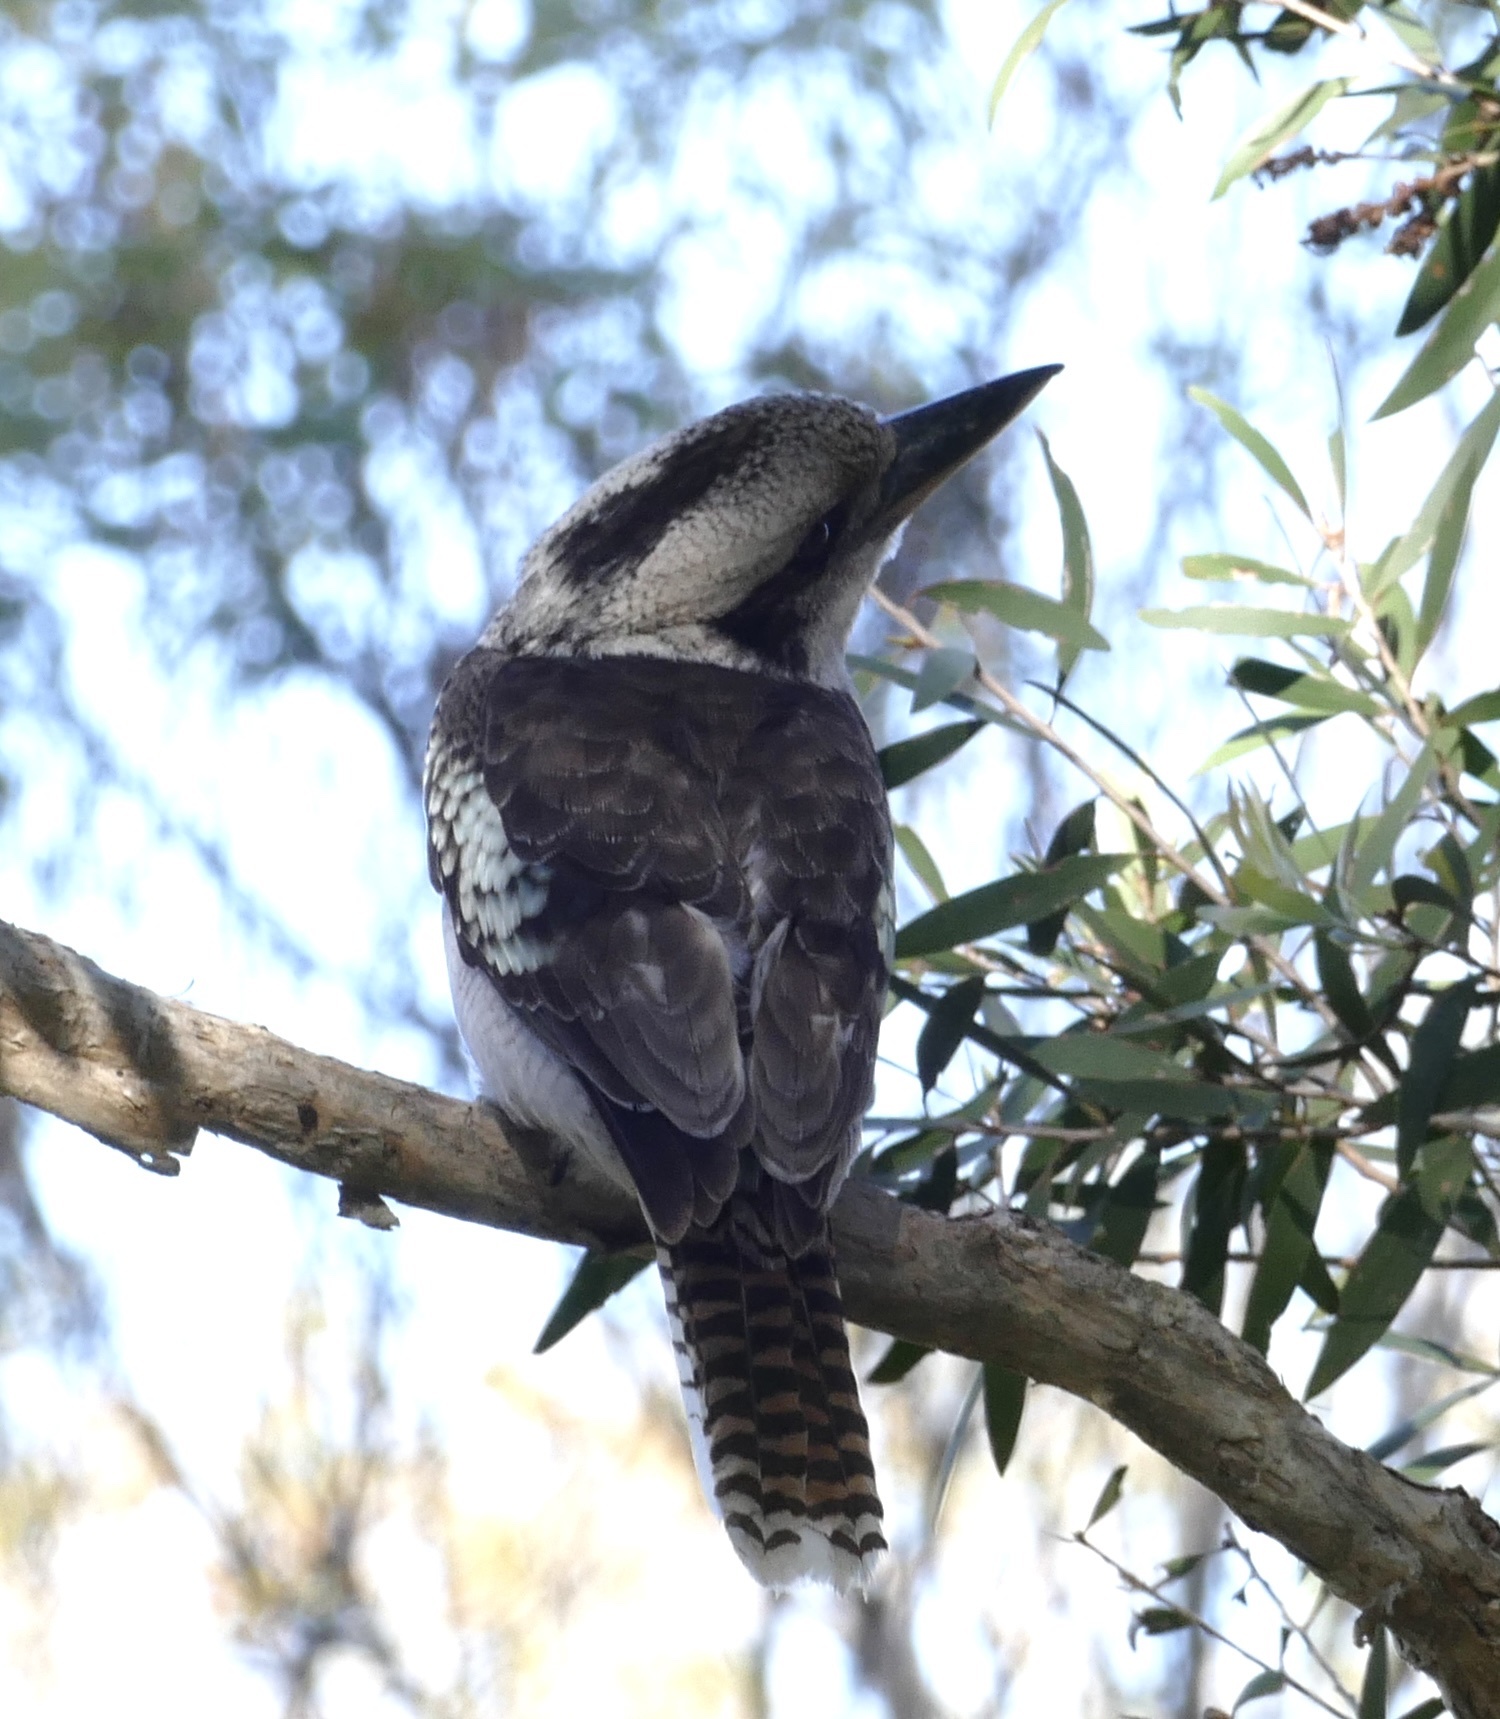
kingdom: Animalia
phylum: Chordata
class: Aves
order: Coraciiformes
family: Alcedinidae
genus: Dacelo
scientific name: Dacelo novaeguineae
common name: Laughing kookaburra
